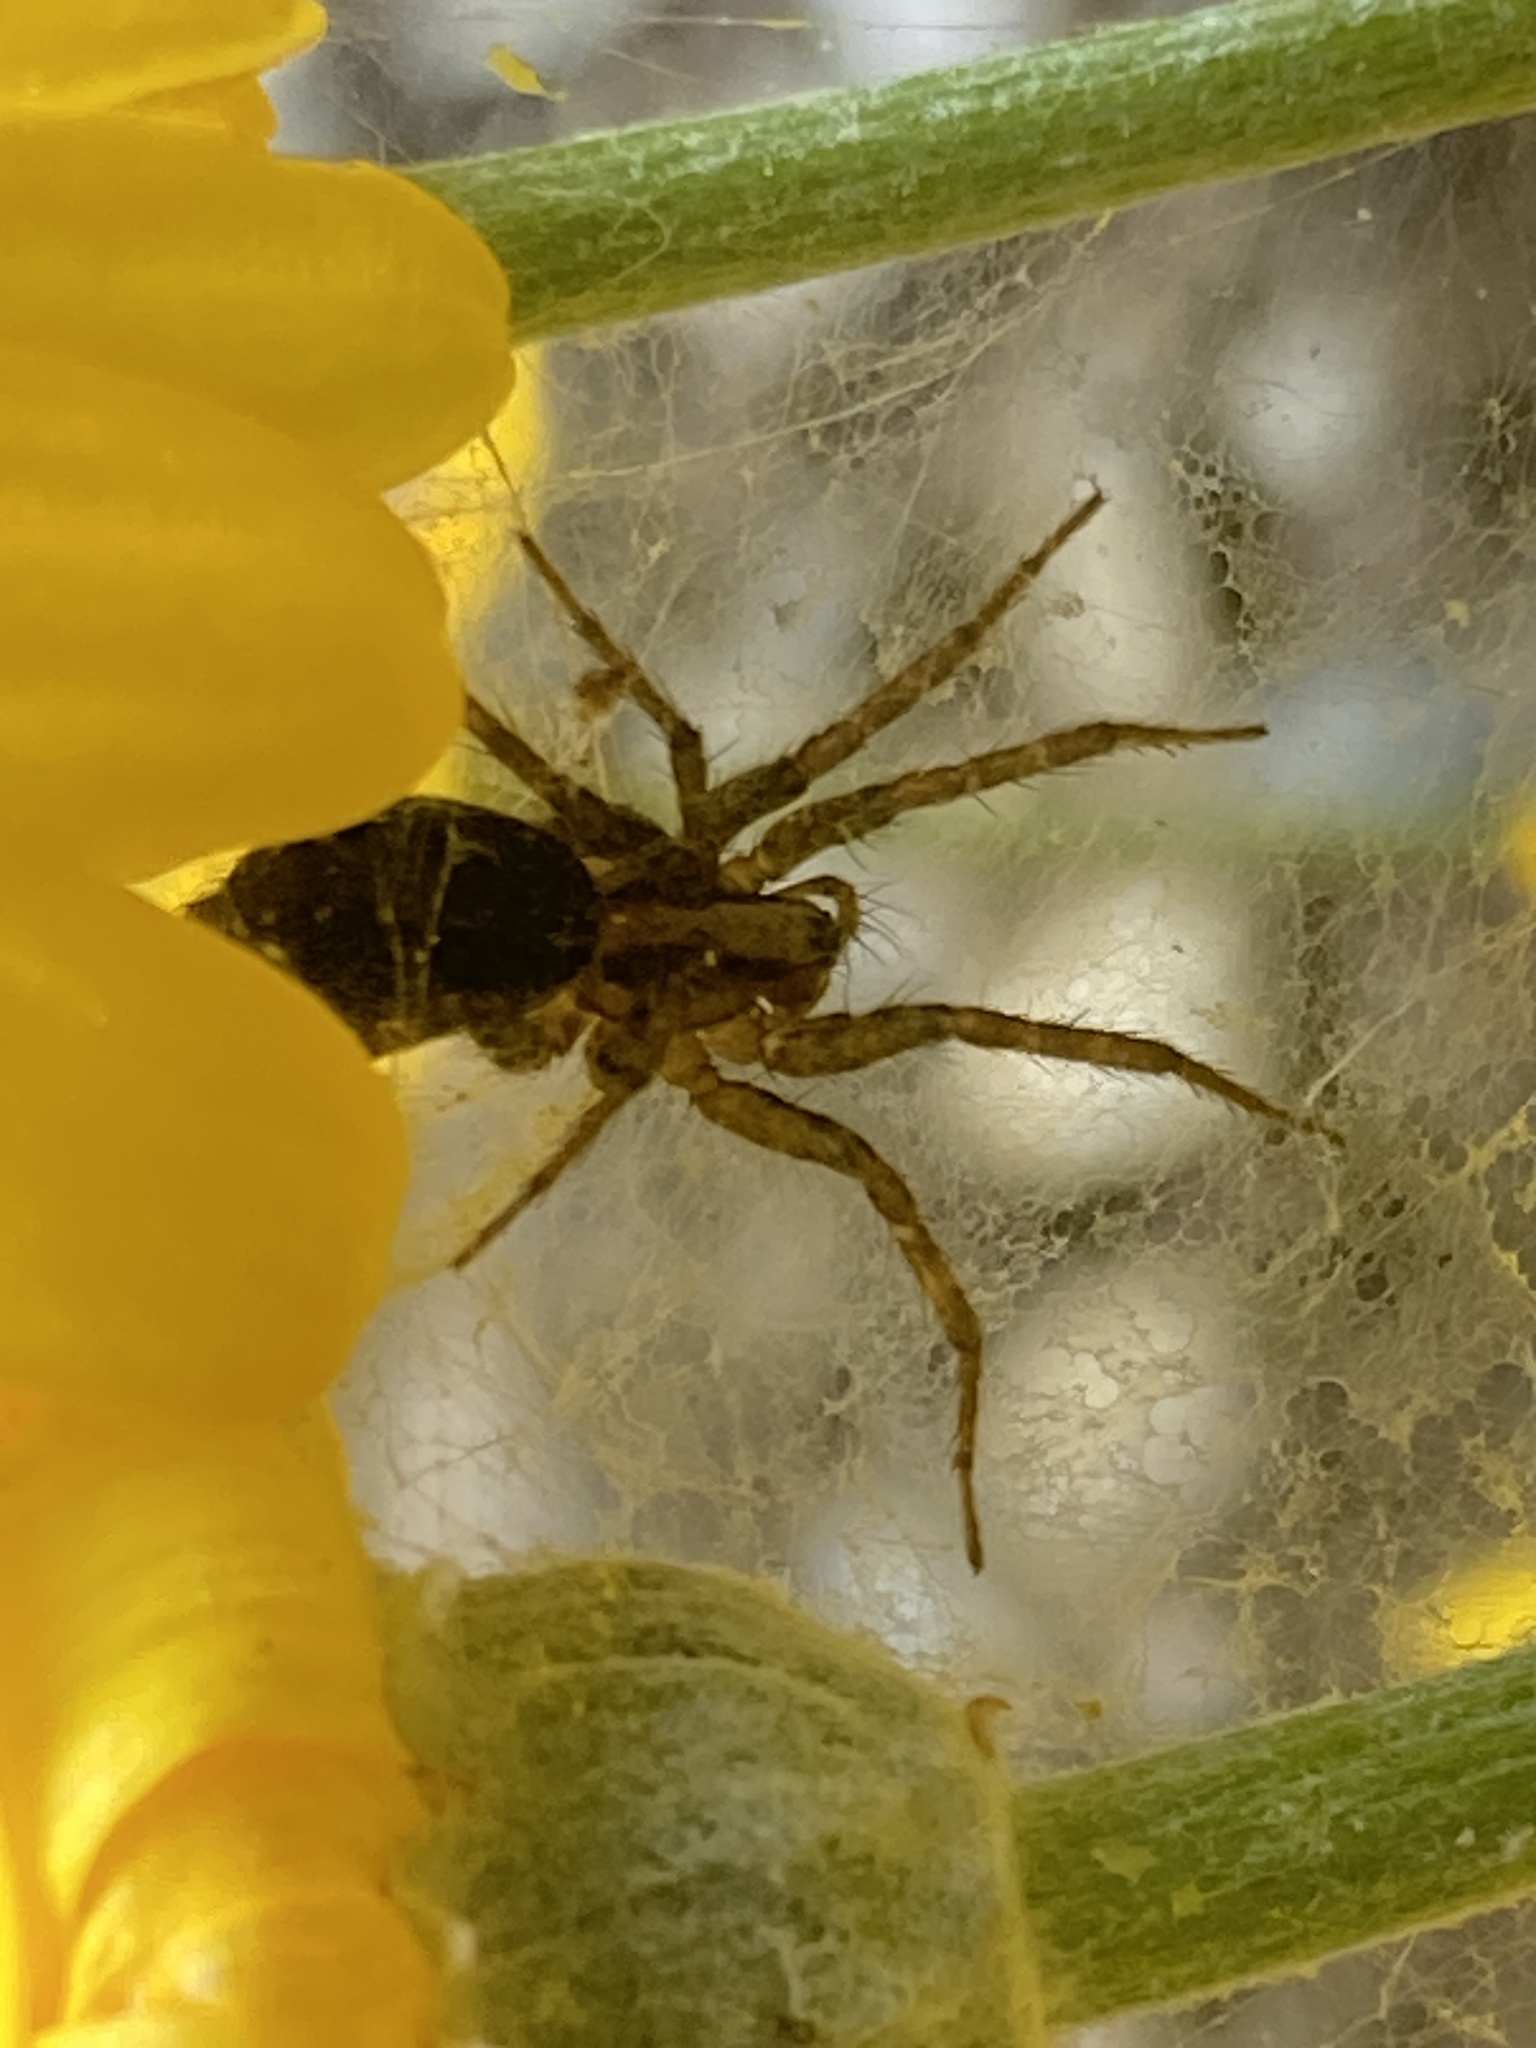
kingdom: Animalia
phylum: Arthropoda
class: Arachnida
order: Araneae
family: Agelenidae
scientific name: Agelenidae
